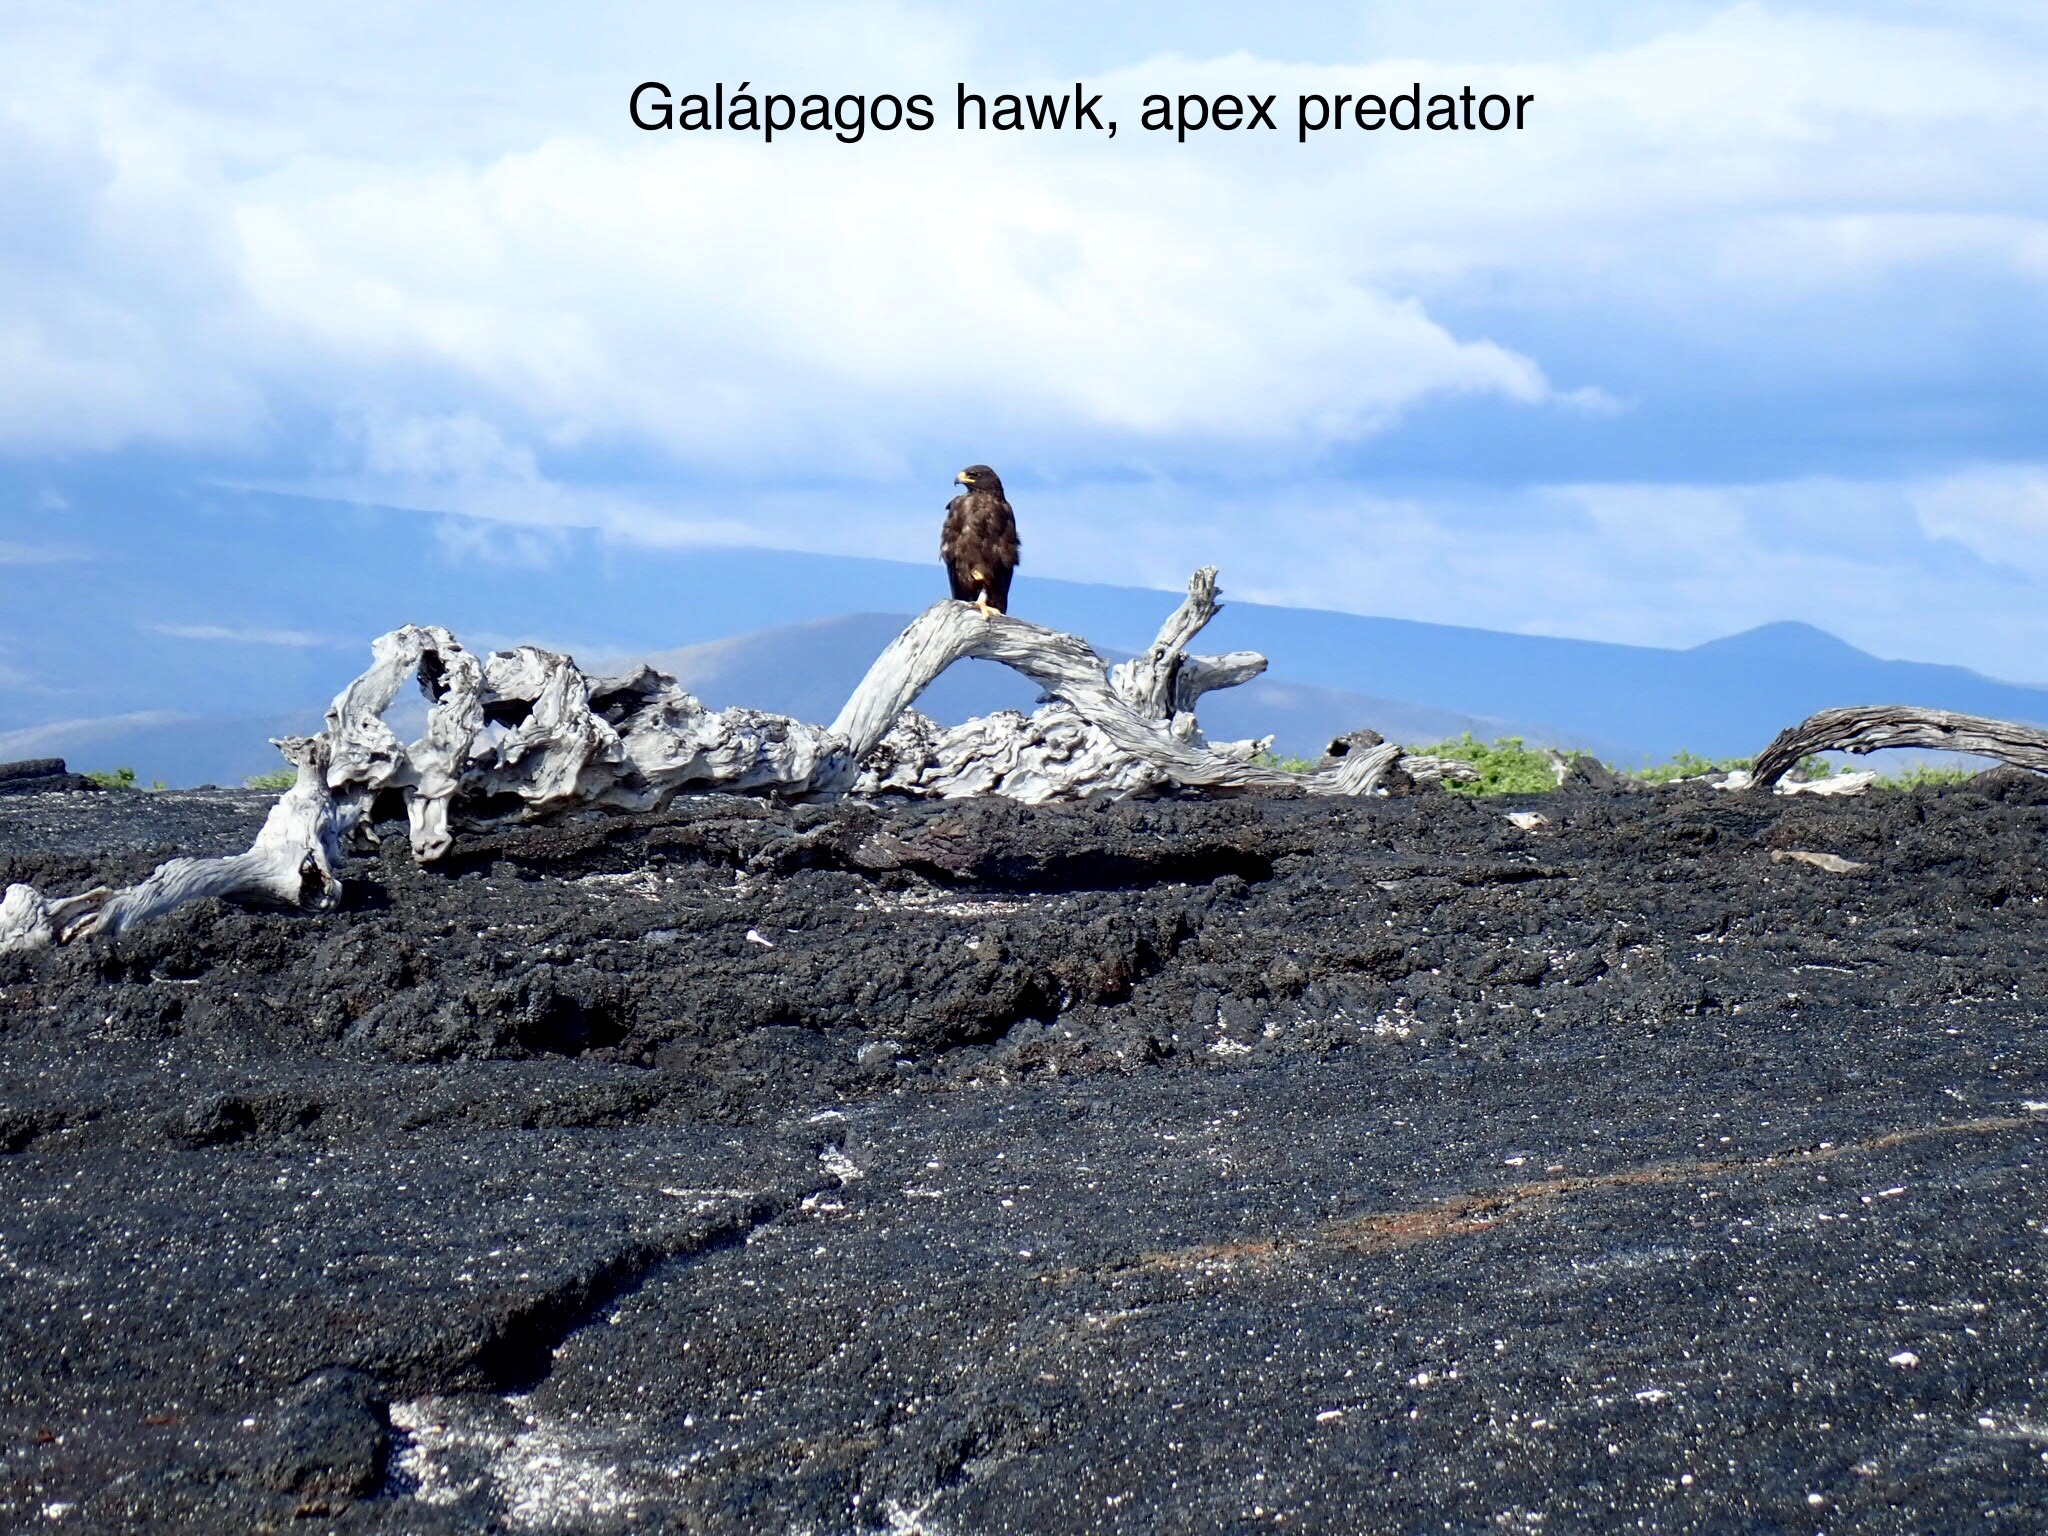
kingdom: Animalia
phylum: Chordata
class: Aves
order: Accipitriformes
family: Accipitridae
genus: Buteo
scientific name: Buteo galapagoensis
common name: Galapagos hawk
